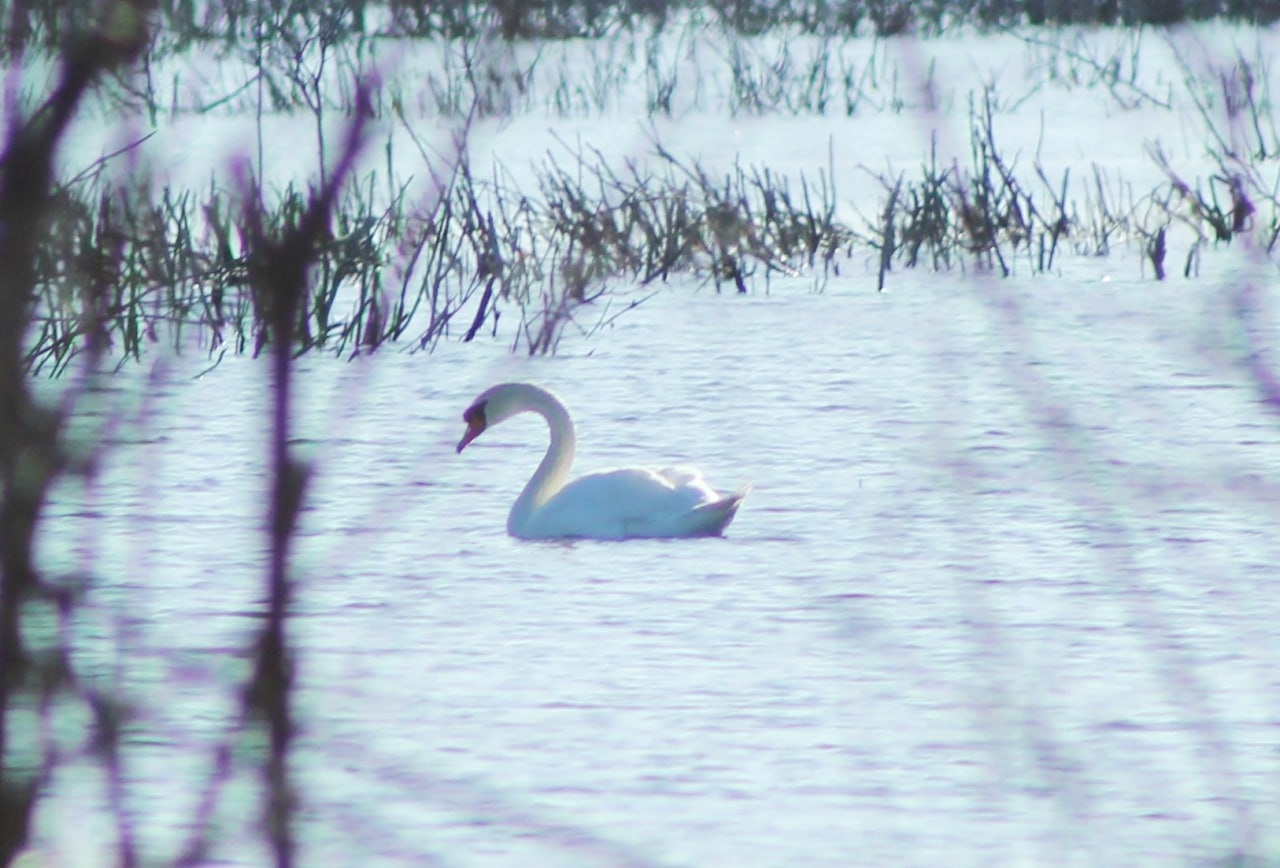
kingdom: Animalia
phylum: Chordata
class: Aves
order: Anseriformes
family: Anatidae
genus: Cygnus
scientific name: Cygnus olor
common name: Mute swan
